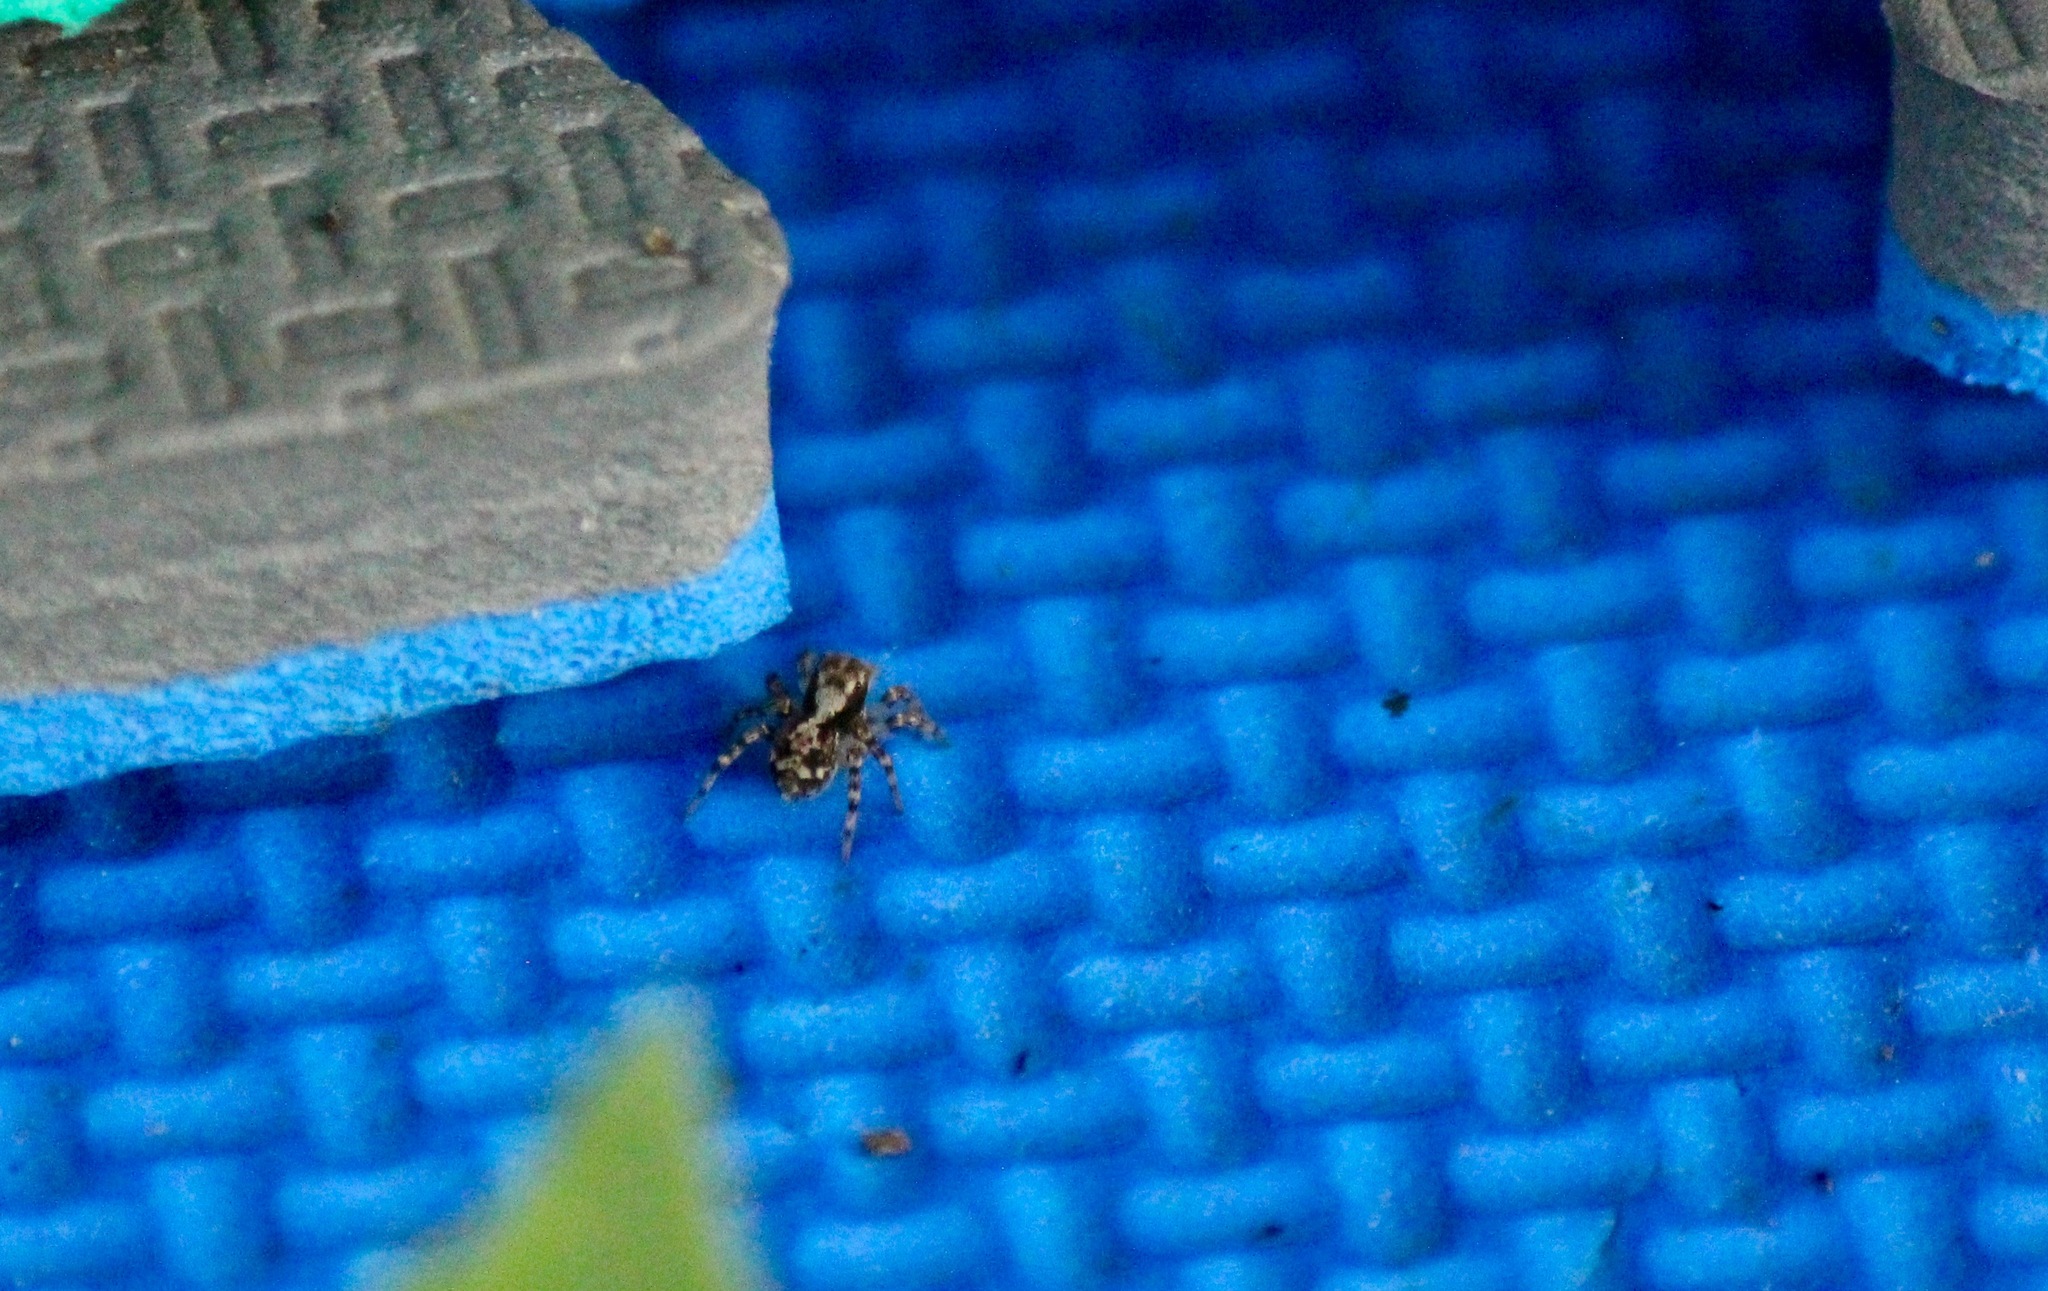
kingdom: Animalia
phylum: Arthropoda
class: Arachnida
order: Araneae
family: Salticidae
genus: Naphrys
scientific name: Naphrys pulex
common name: Flea jumping spider
